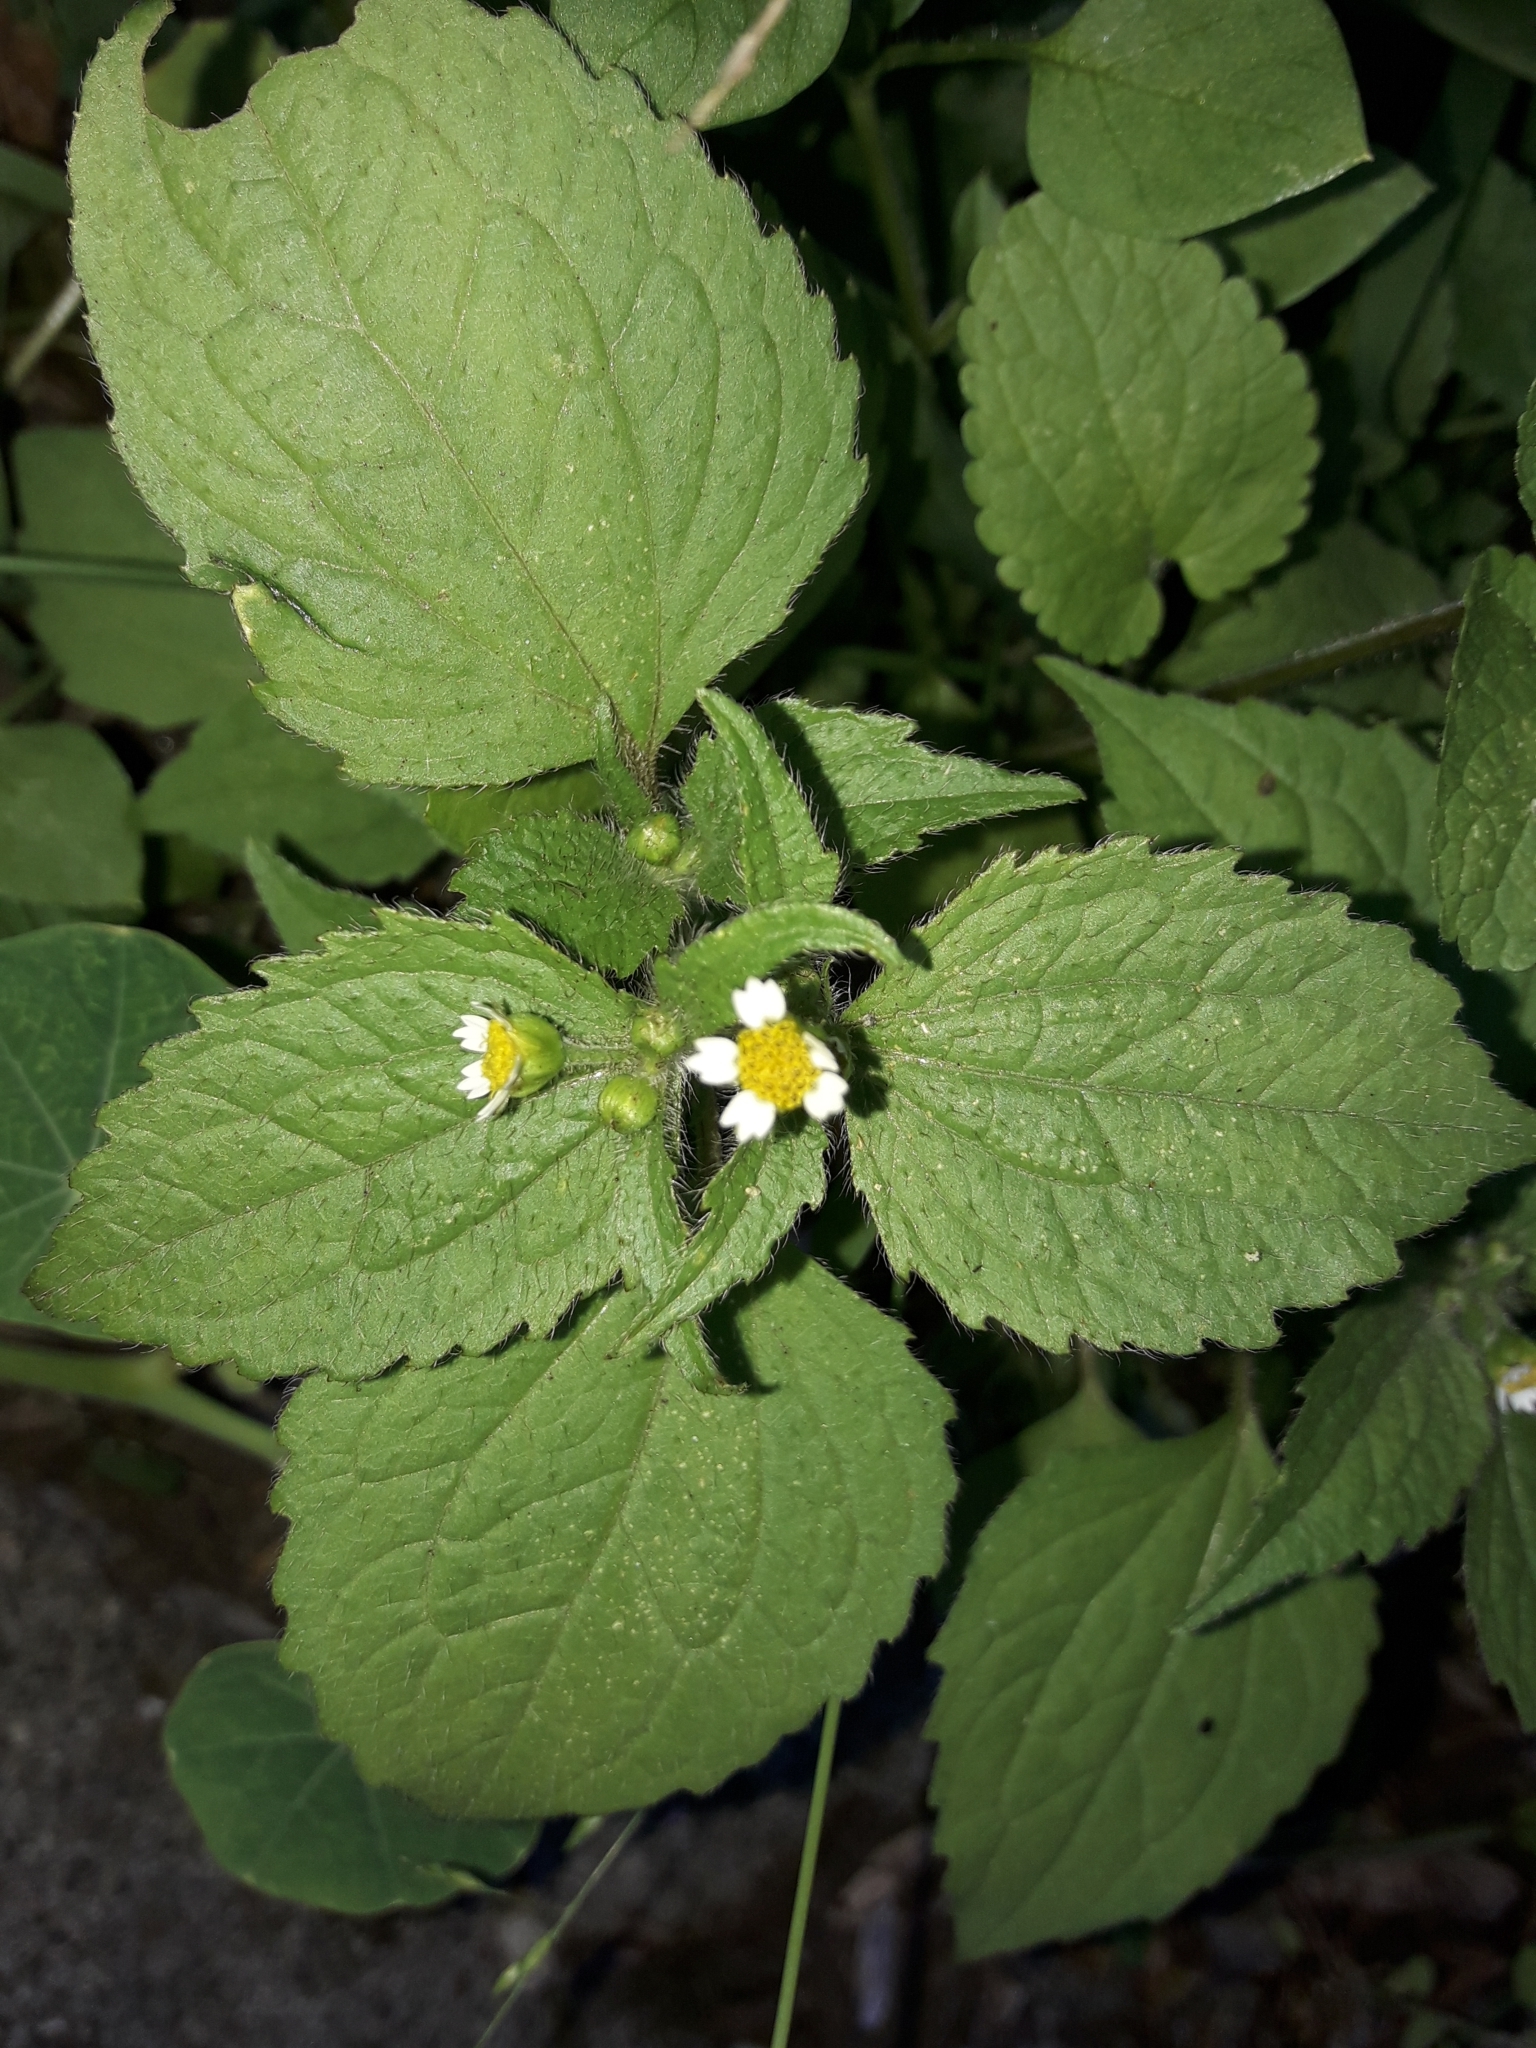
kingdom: Plantae
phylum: Tracheophyta
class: Magnoliopsida
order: Asterales
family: Asteraceae
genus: Galinsoga
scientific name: Galinsoga quadriradiata
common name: Shaggy soldier
